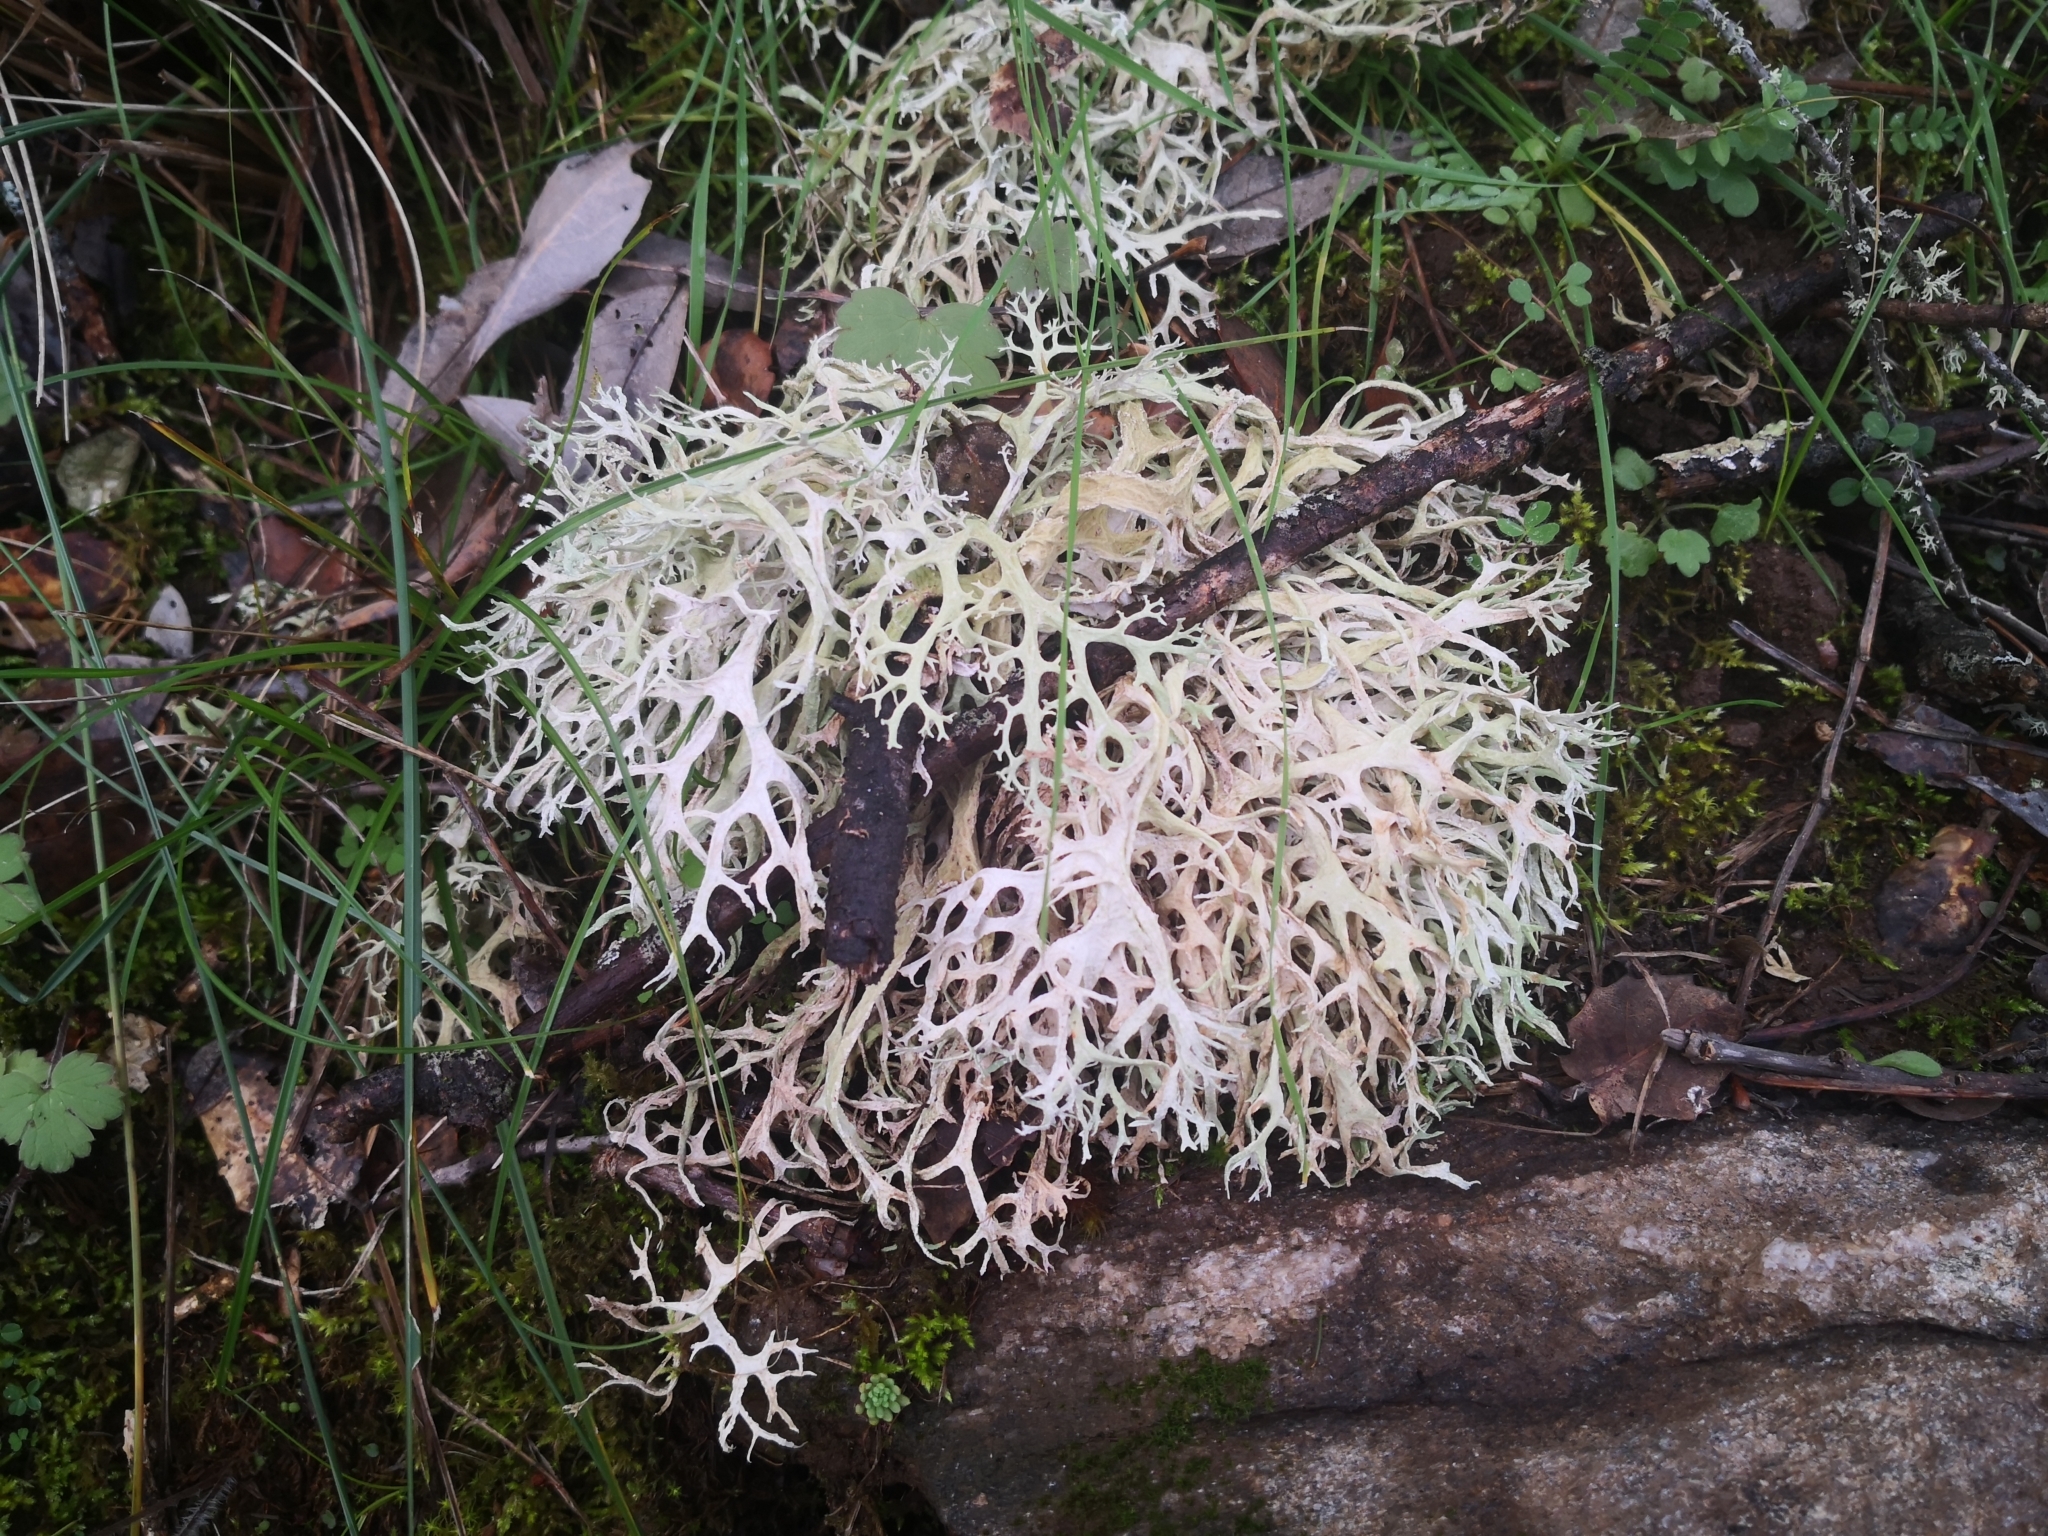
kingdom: Fungi
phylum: Ascomycota
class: Lecanoromycetes
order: Lecanorales
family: Parmeliaceae
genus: Evernia
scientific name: Evernia prunastri
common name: Oak moss
